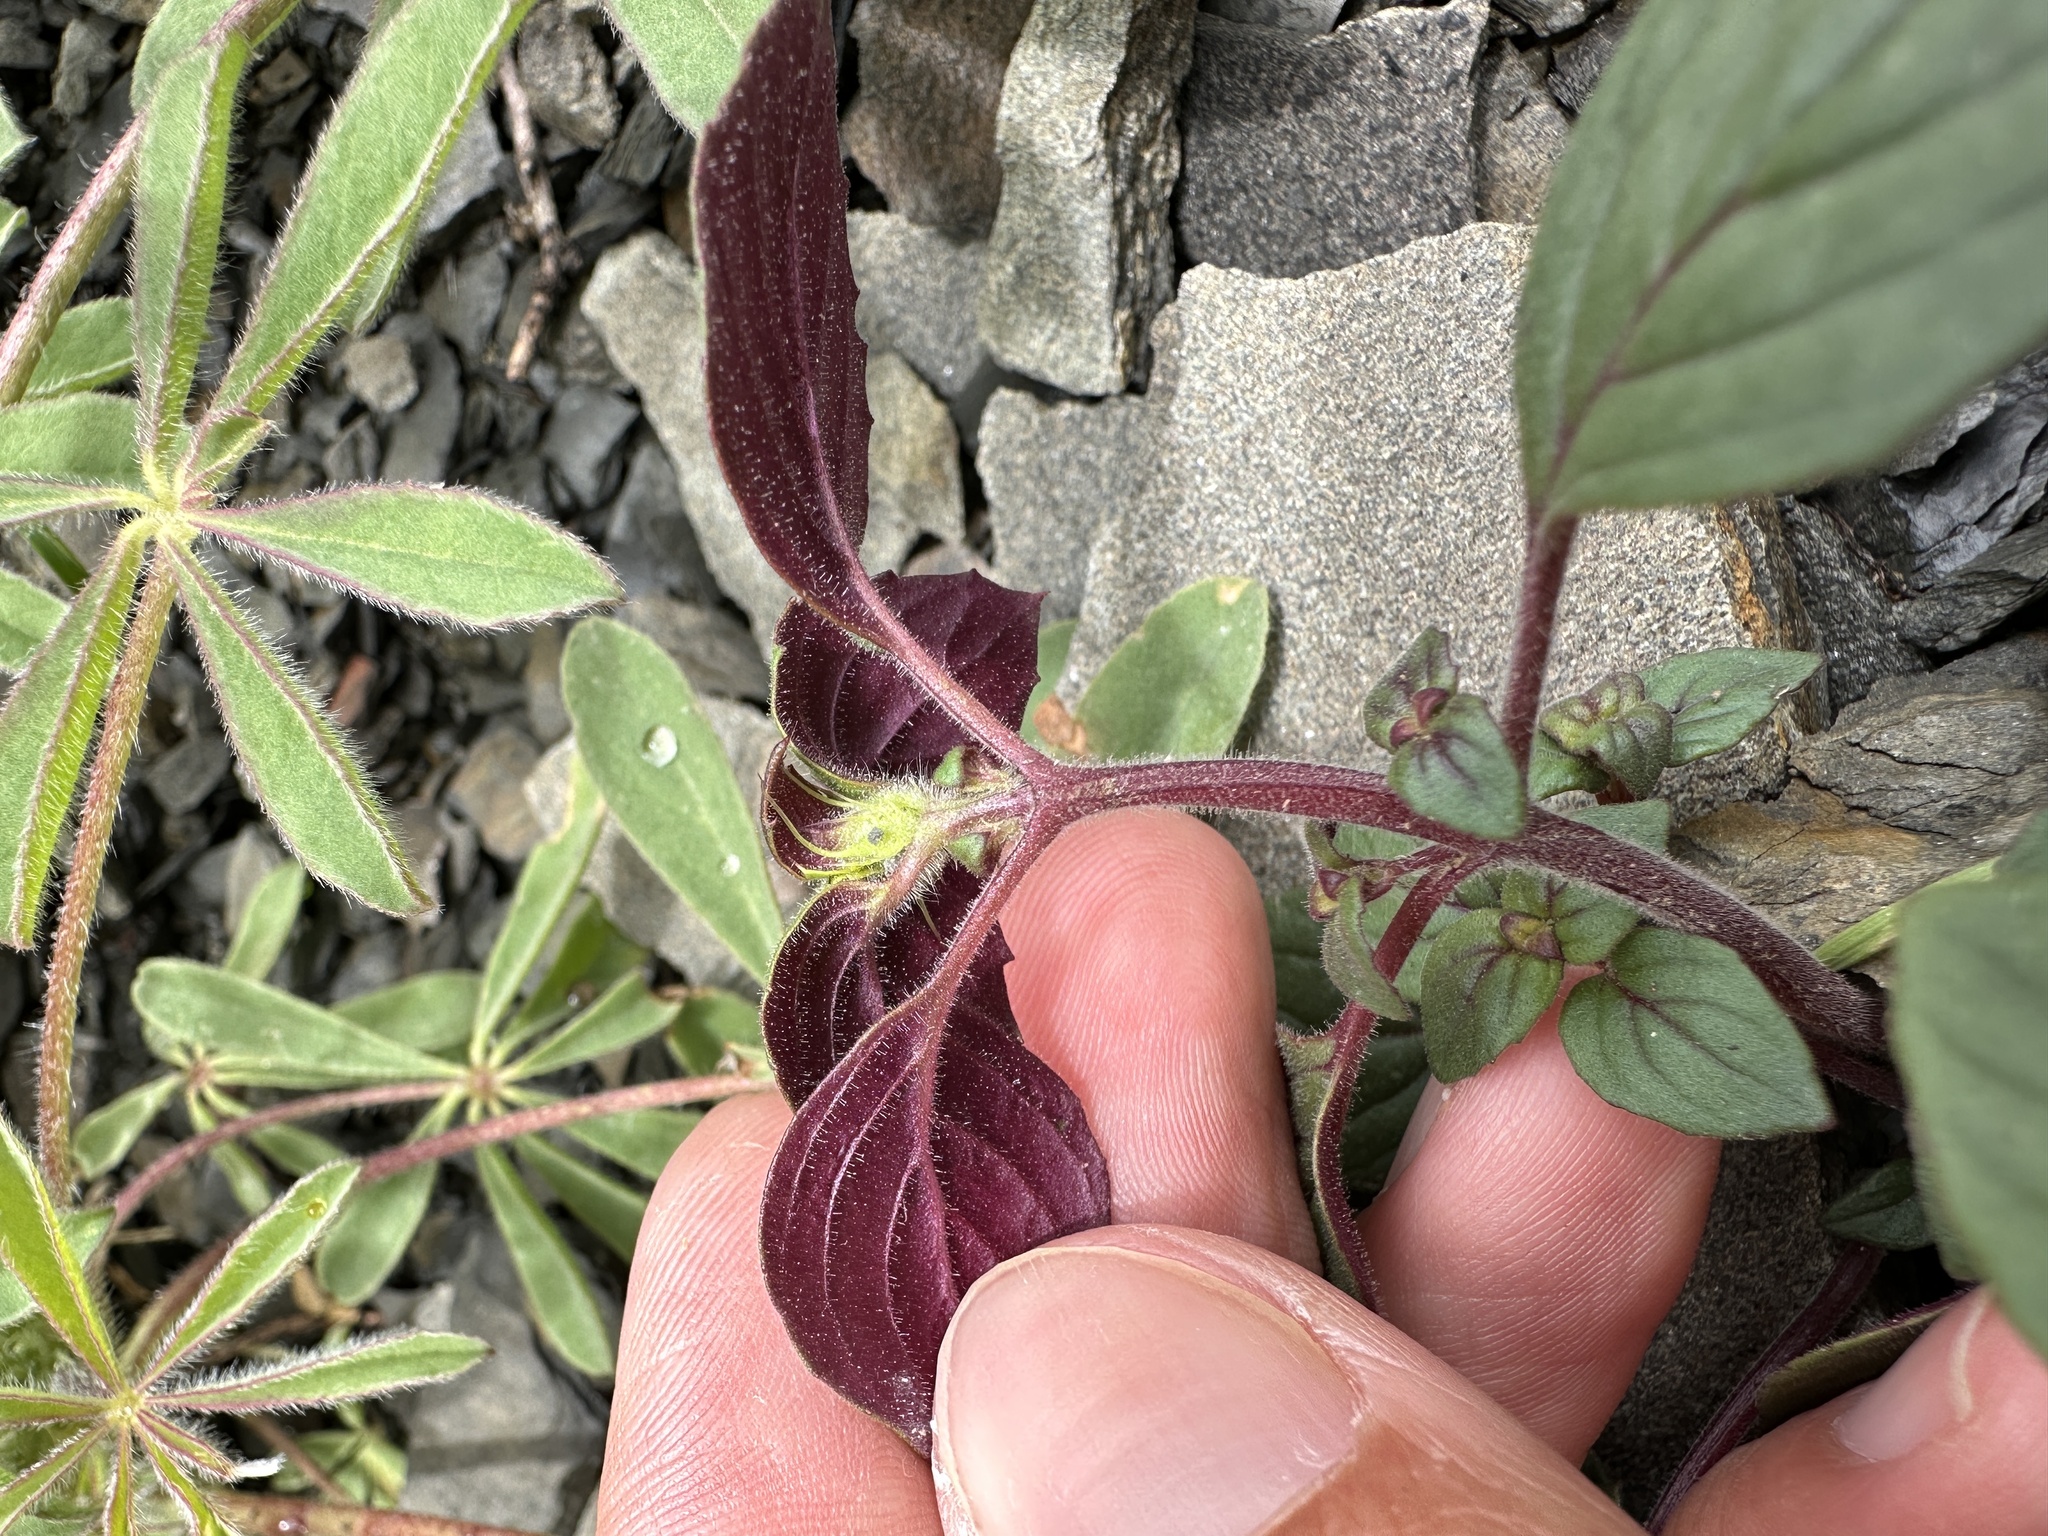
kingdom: Plantae
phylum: Tracheophyta
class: Magnoliopsida
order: Lamiales
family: Lamiaceae
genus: Acanthomintha
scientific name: Acanthomintha lanceolata
